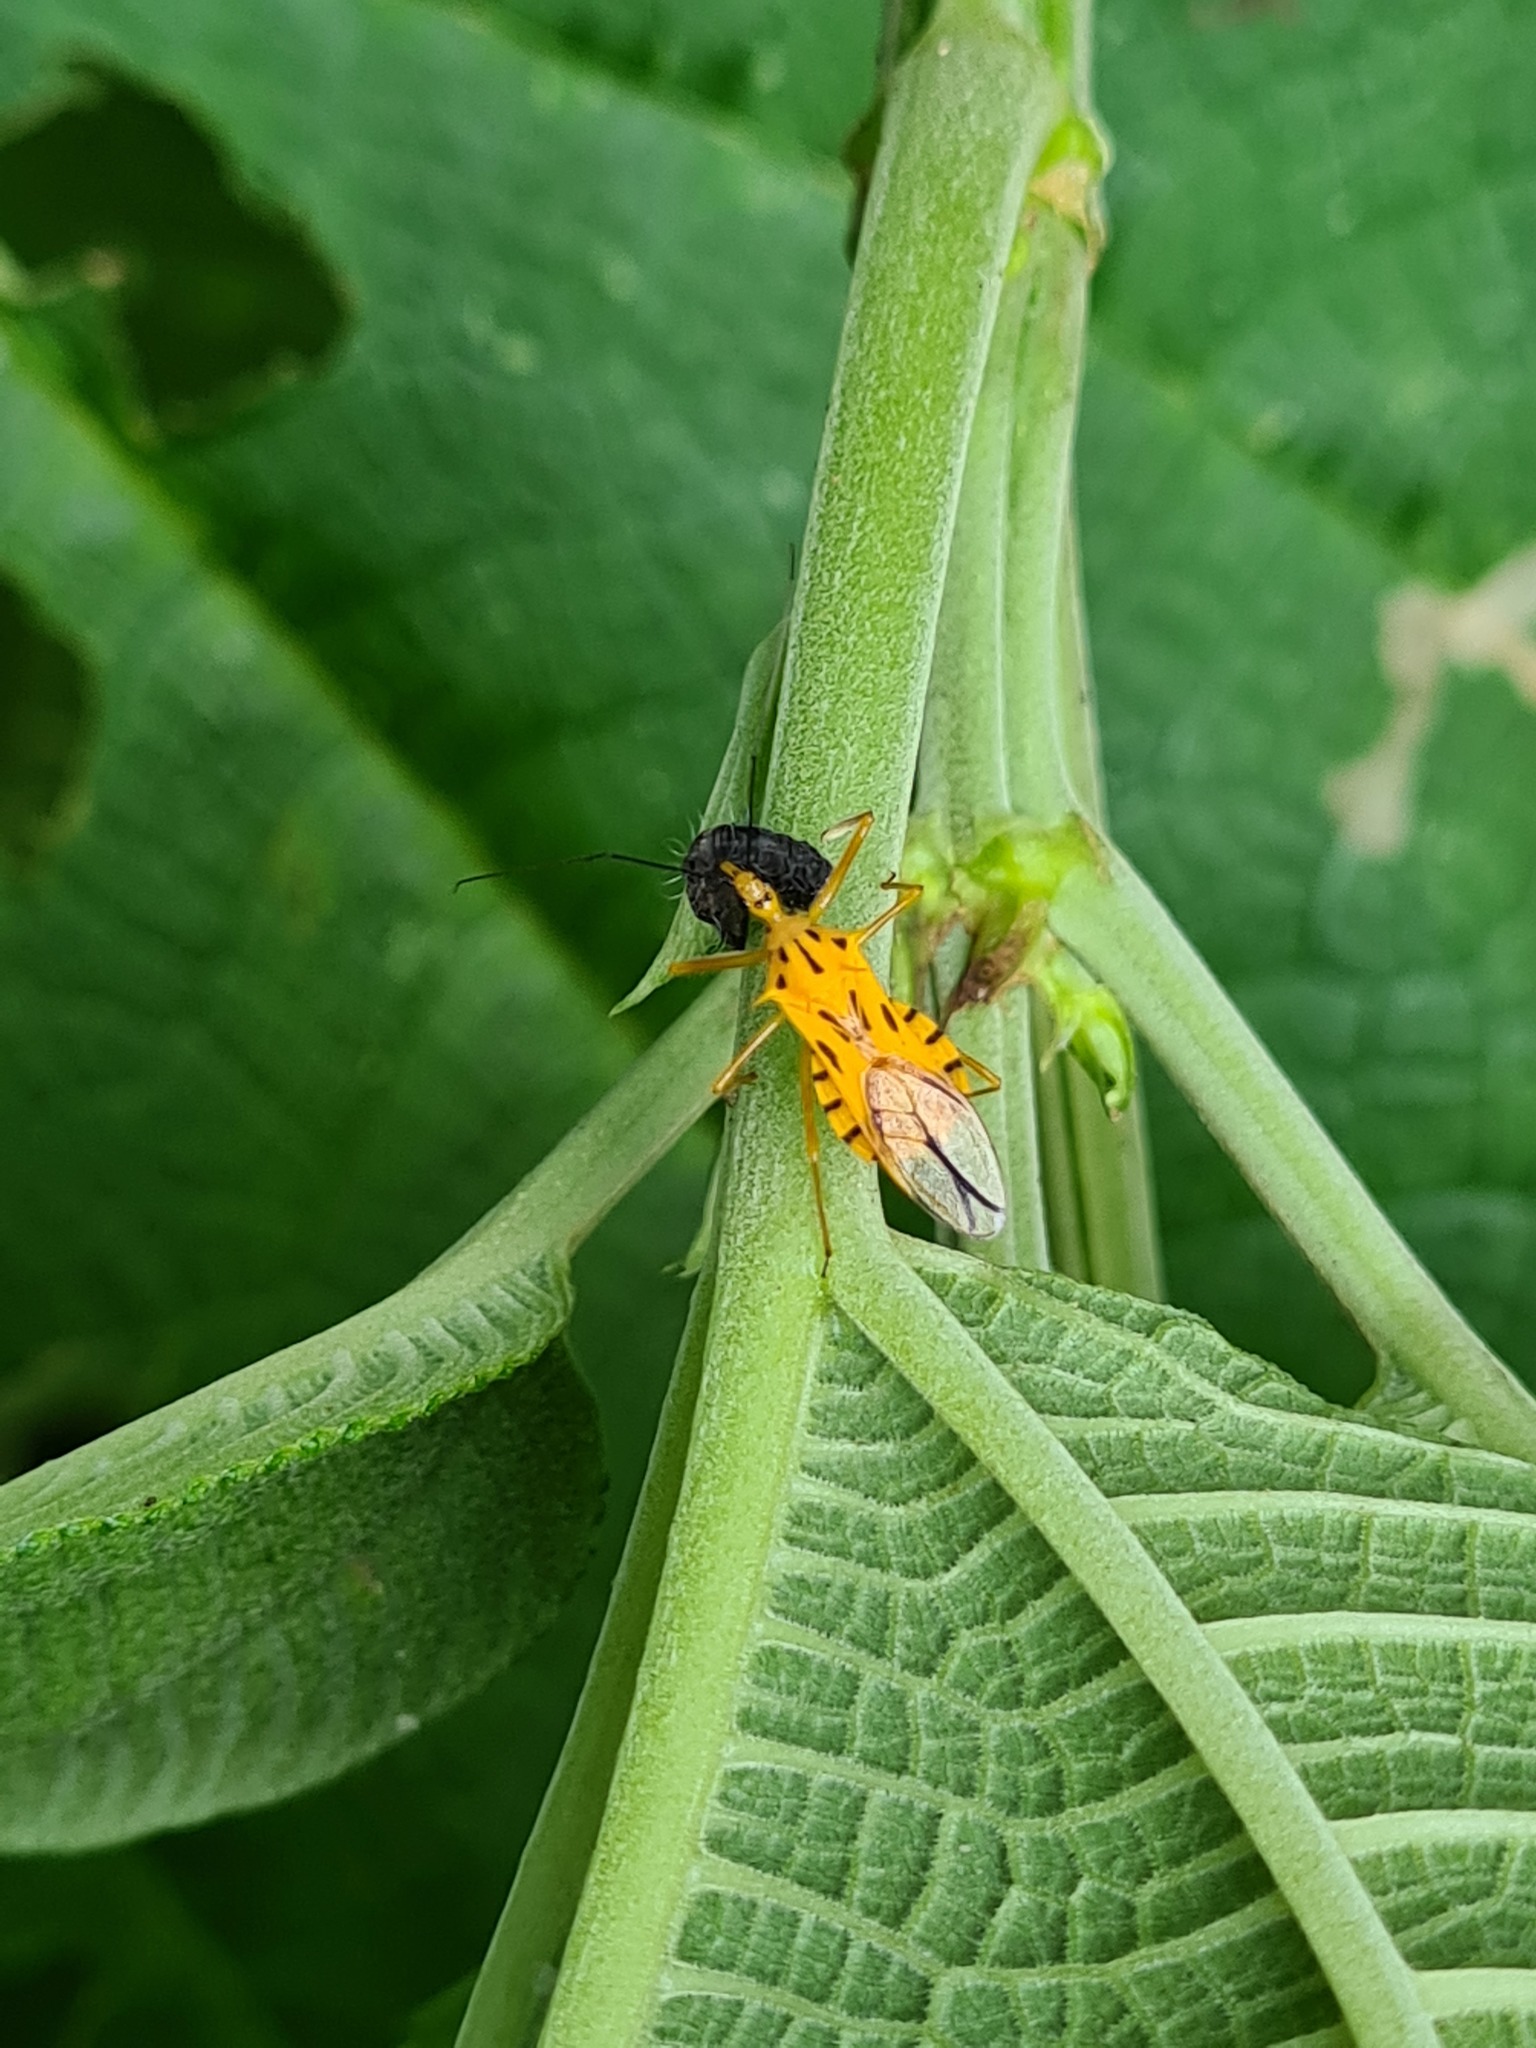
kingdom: Animalia
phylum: Arthropoda
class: Insecta
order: Hemiptera
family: Reduviidae
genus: Corcia
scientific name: Corcia columbica
